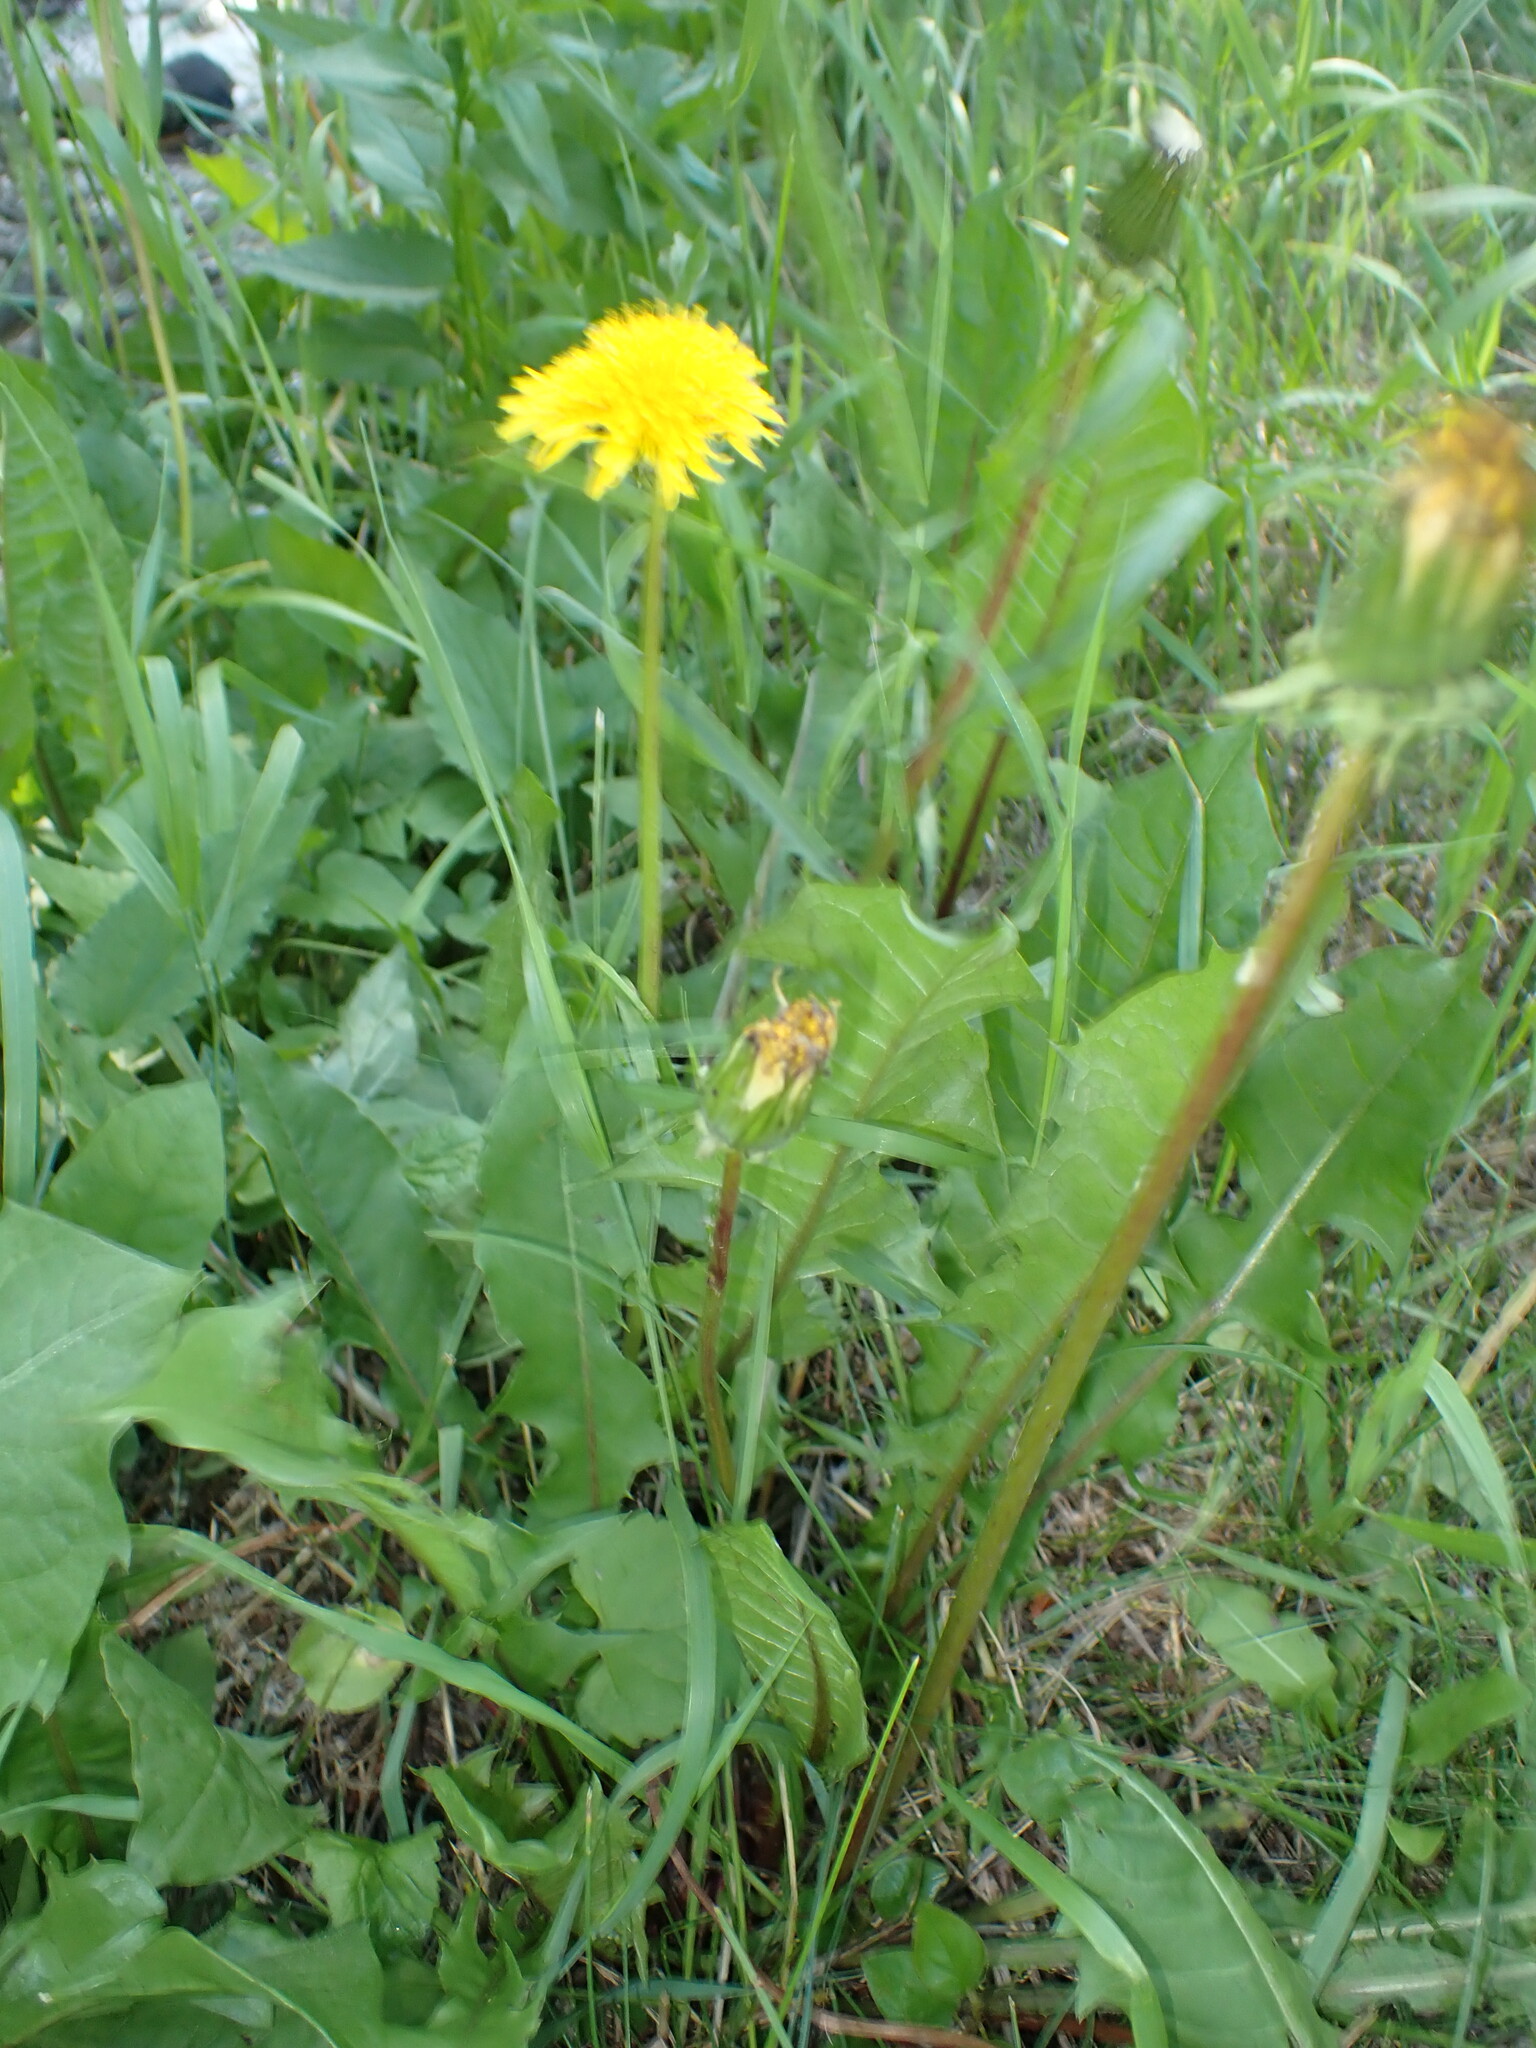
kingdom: Plantae
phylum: Tracheophyta
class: Magnoliopsida
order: Asterales
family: Asteraceae
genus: Taraxacum
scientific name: Taraxacum officinale
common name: Common dandelion
